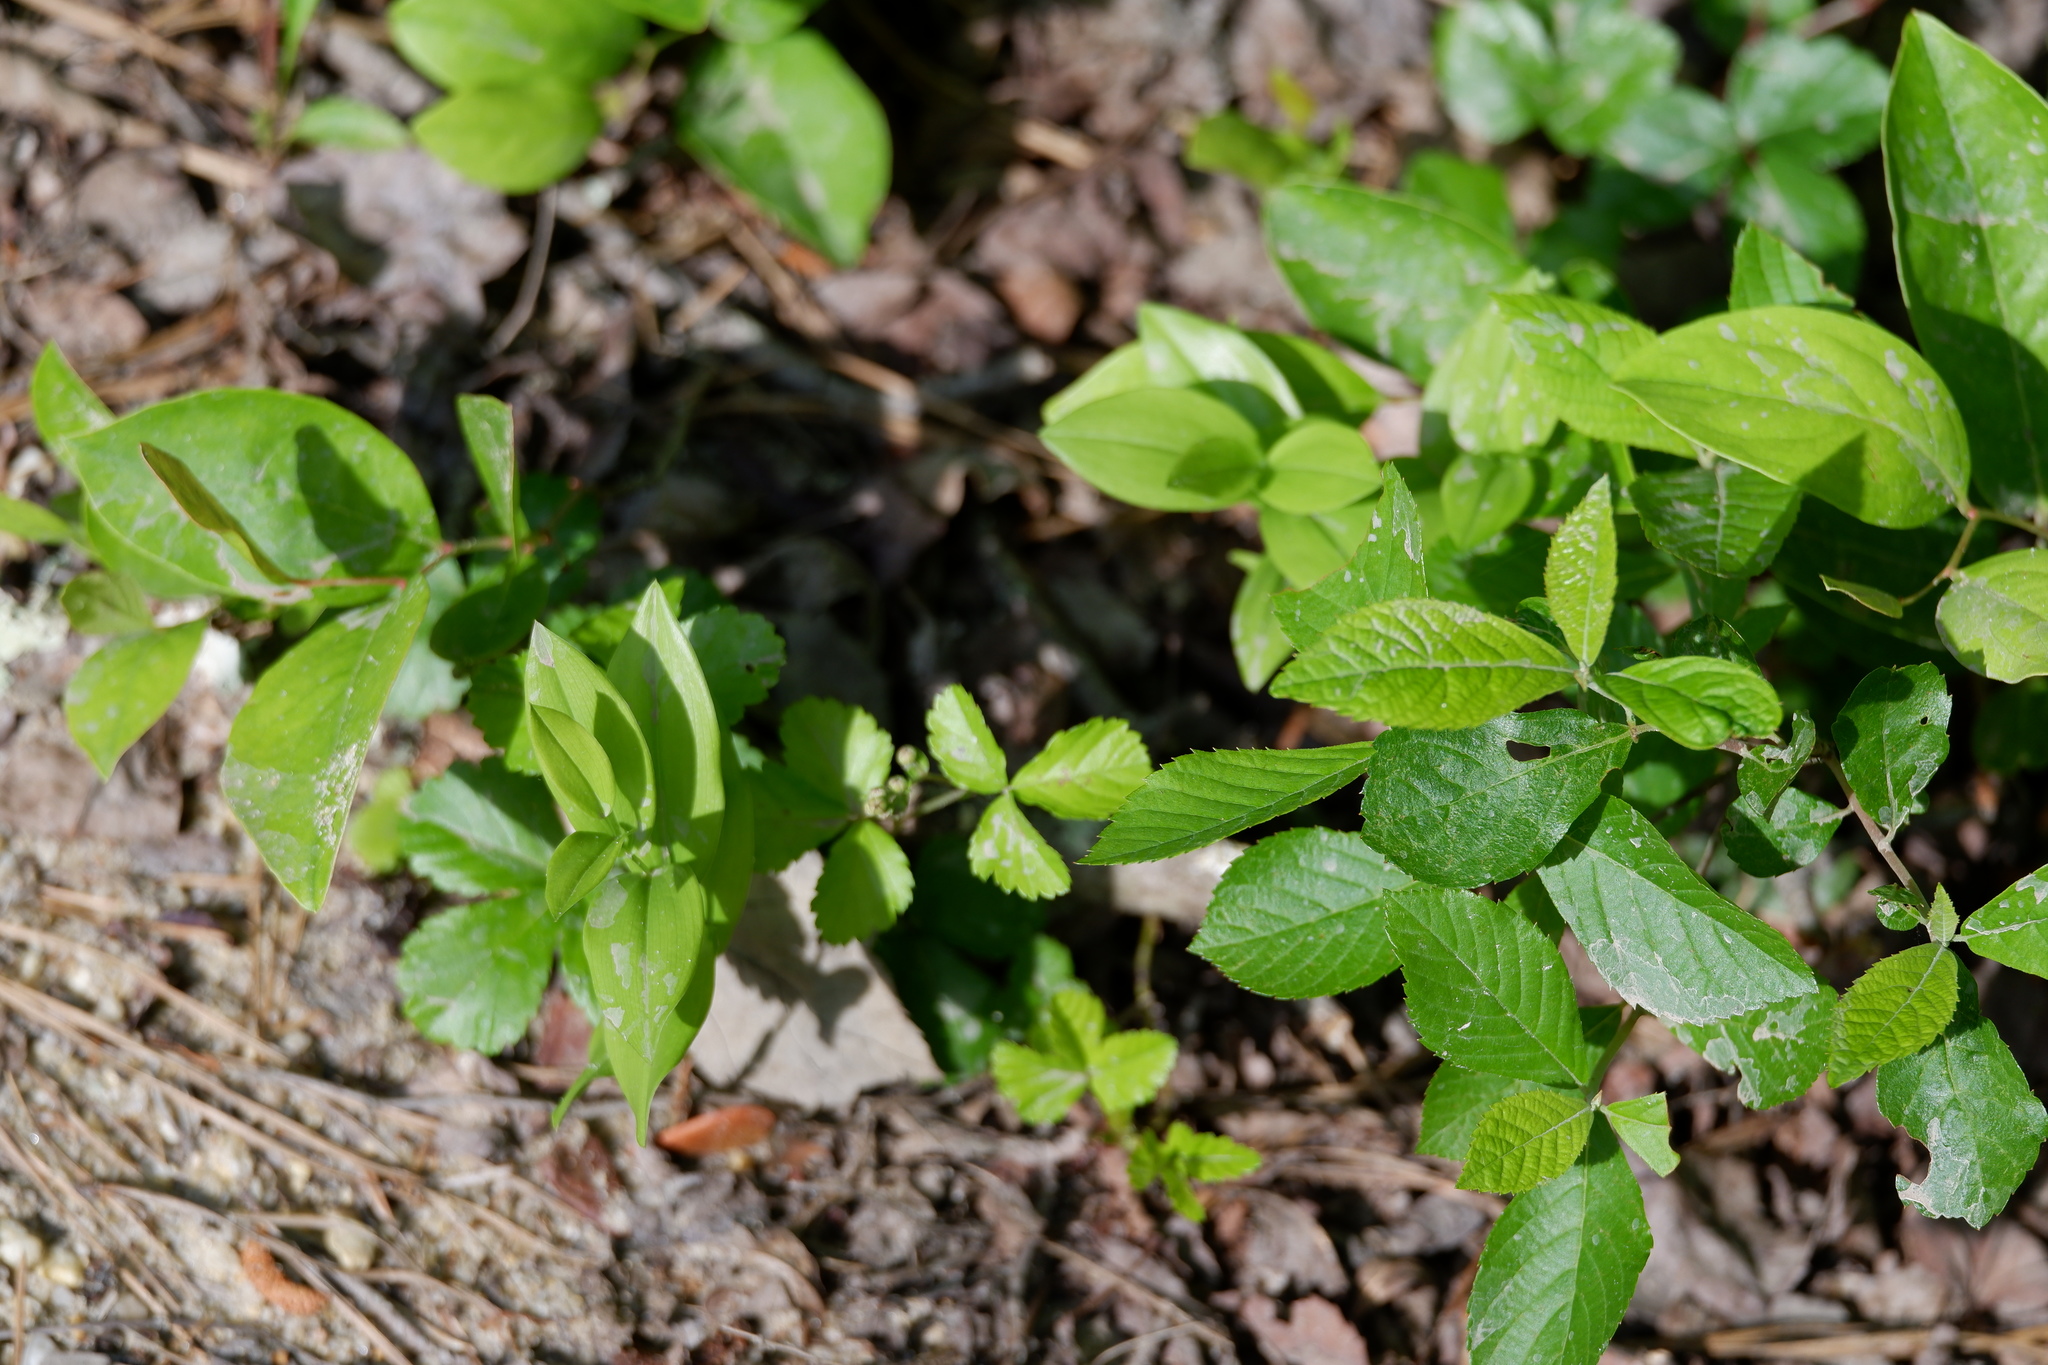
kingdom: Plantae
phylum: Tracheophyta
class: Liliopsida
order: Liliales
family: Colchicaceae
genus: Uvularia
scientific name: Uvularia puberula
